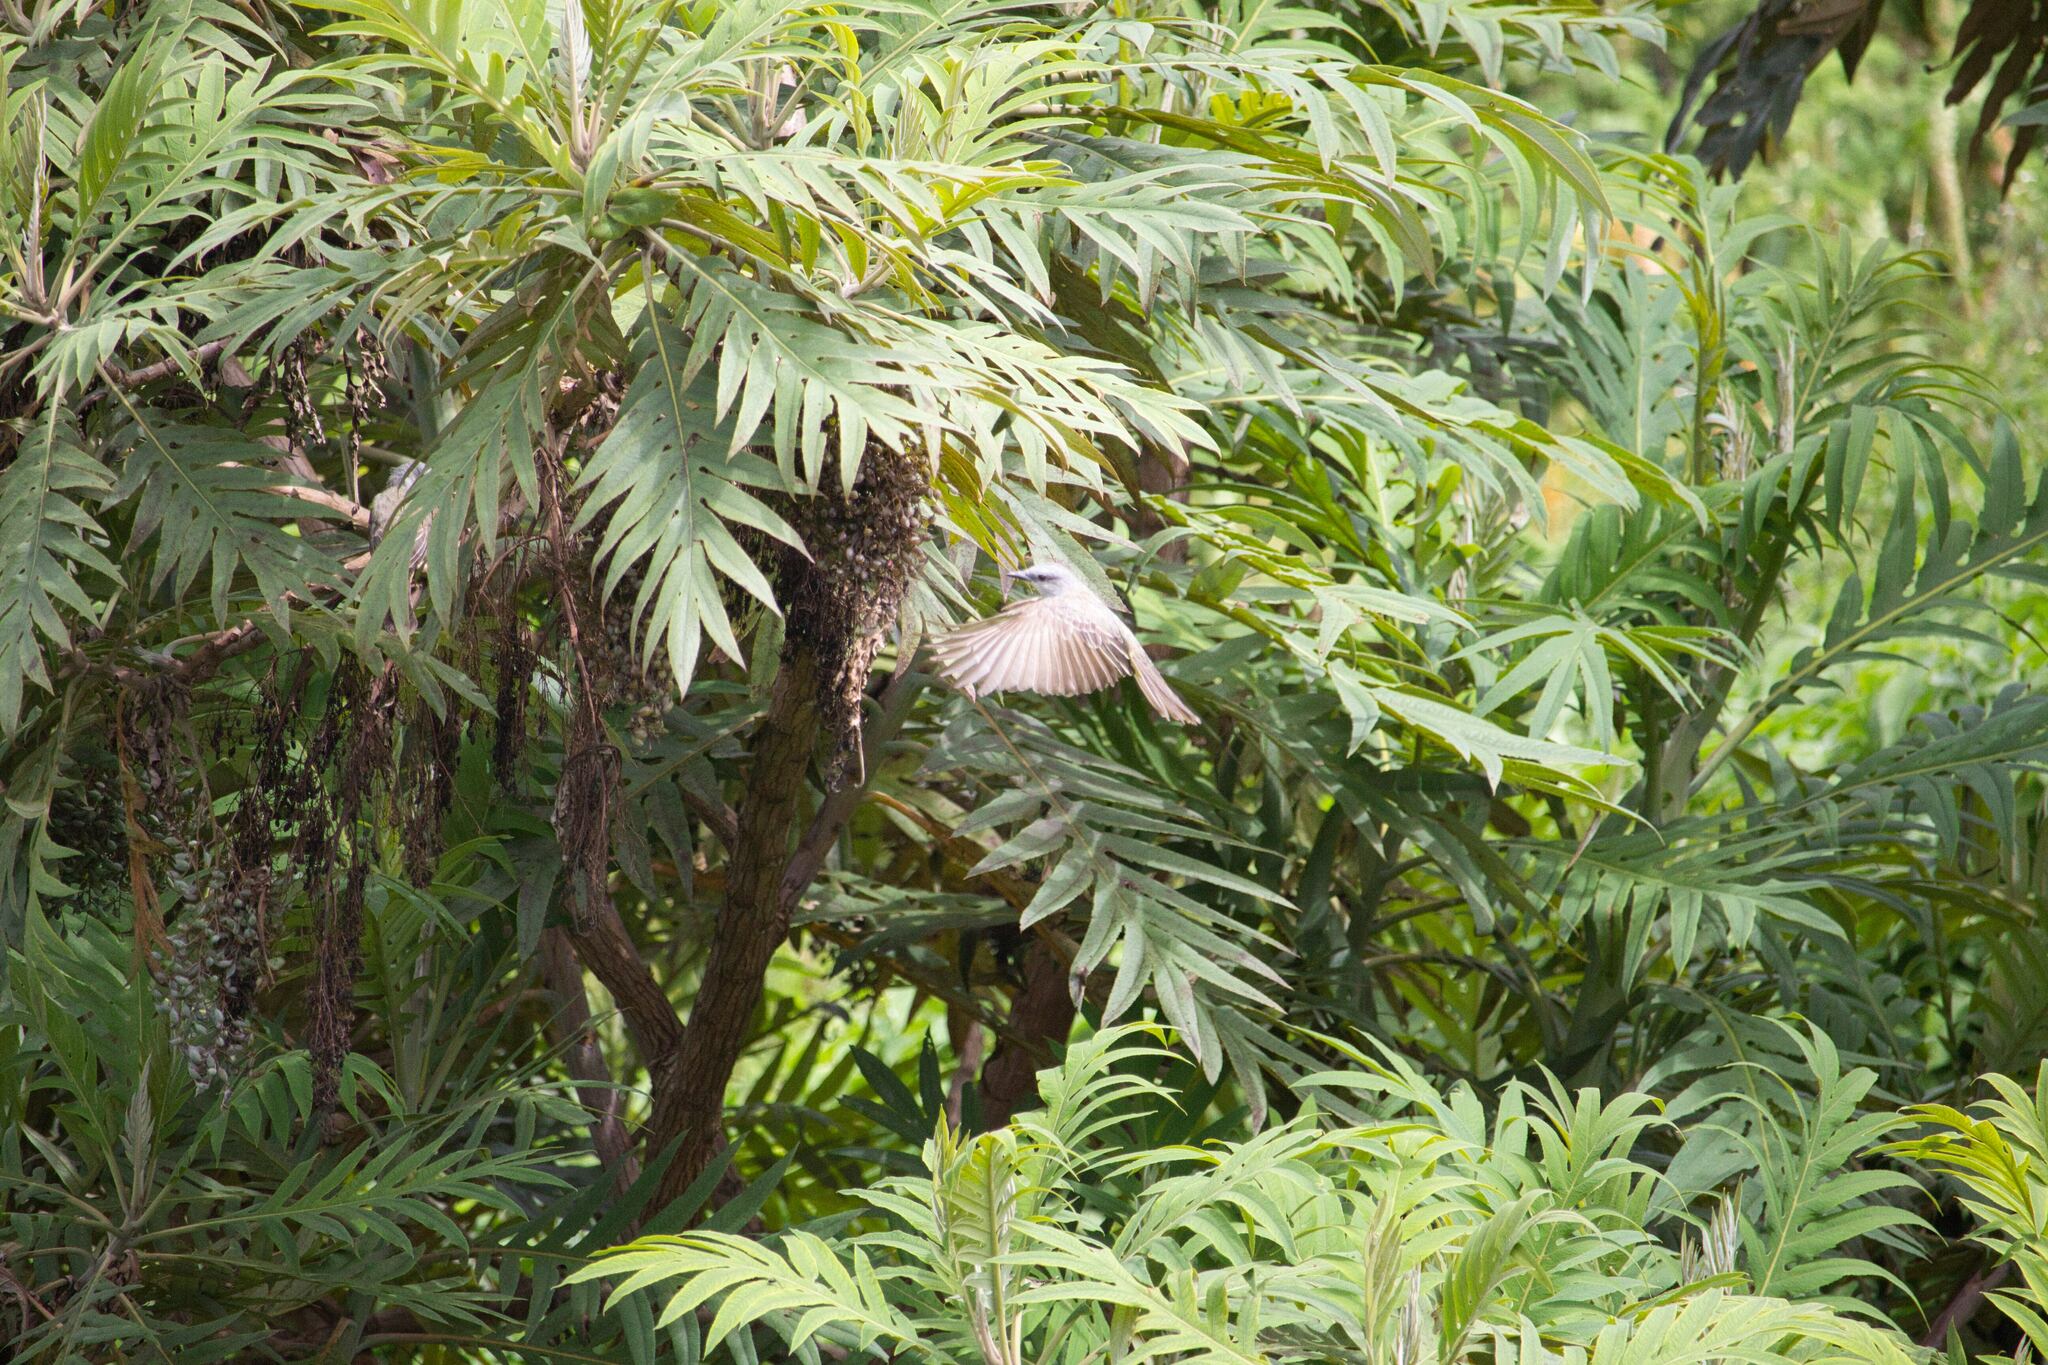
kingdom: Animalia
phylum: Chordata
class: Aves
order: Passeriformes
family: Tyrannidae
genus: Tyrannus
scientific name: Tyrannus melancholicus
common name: Tropical kingbird
